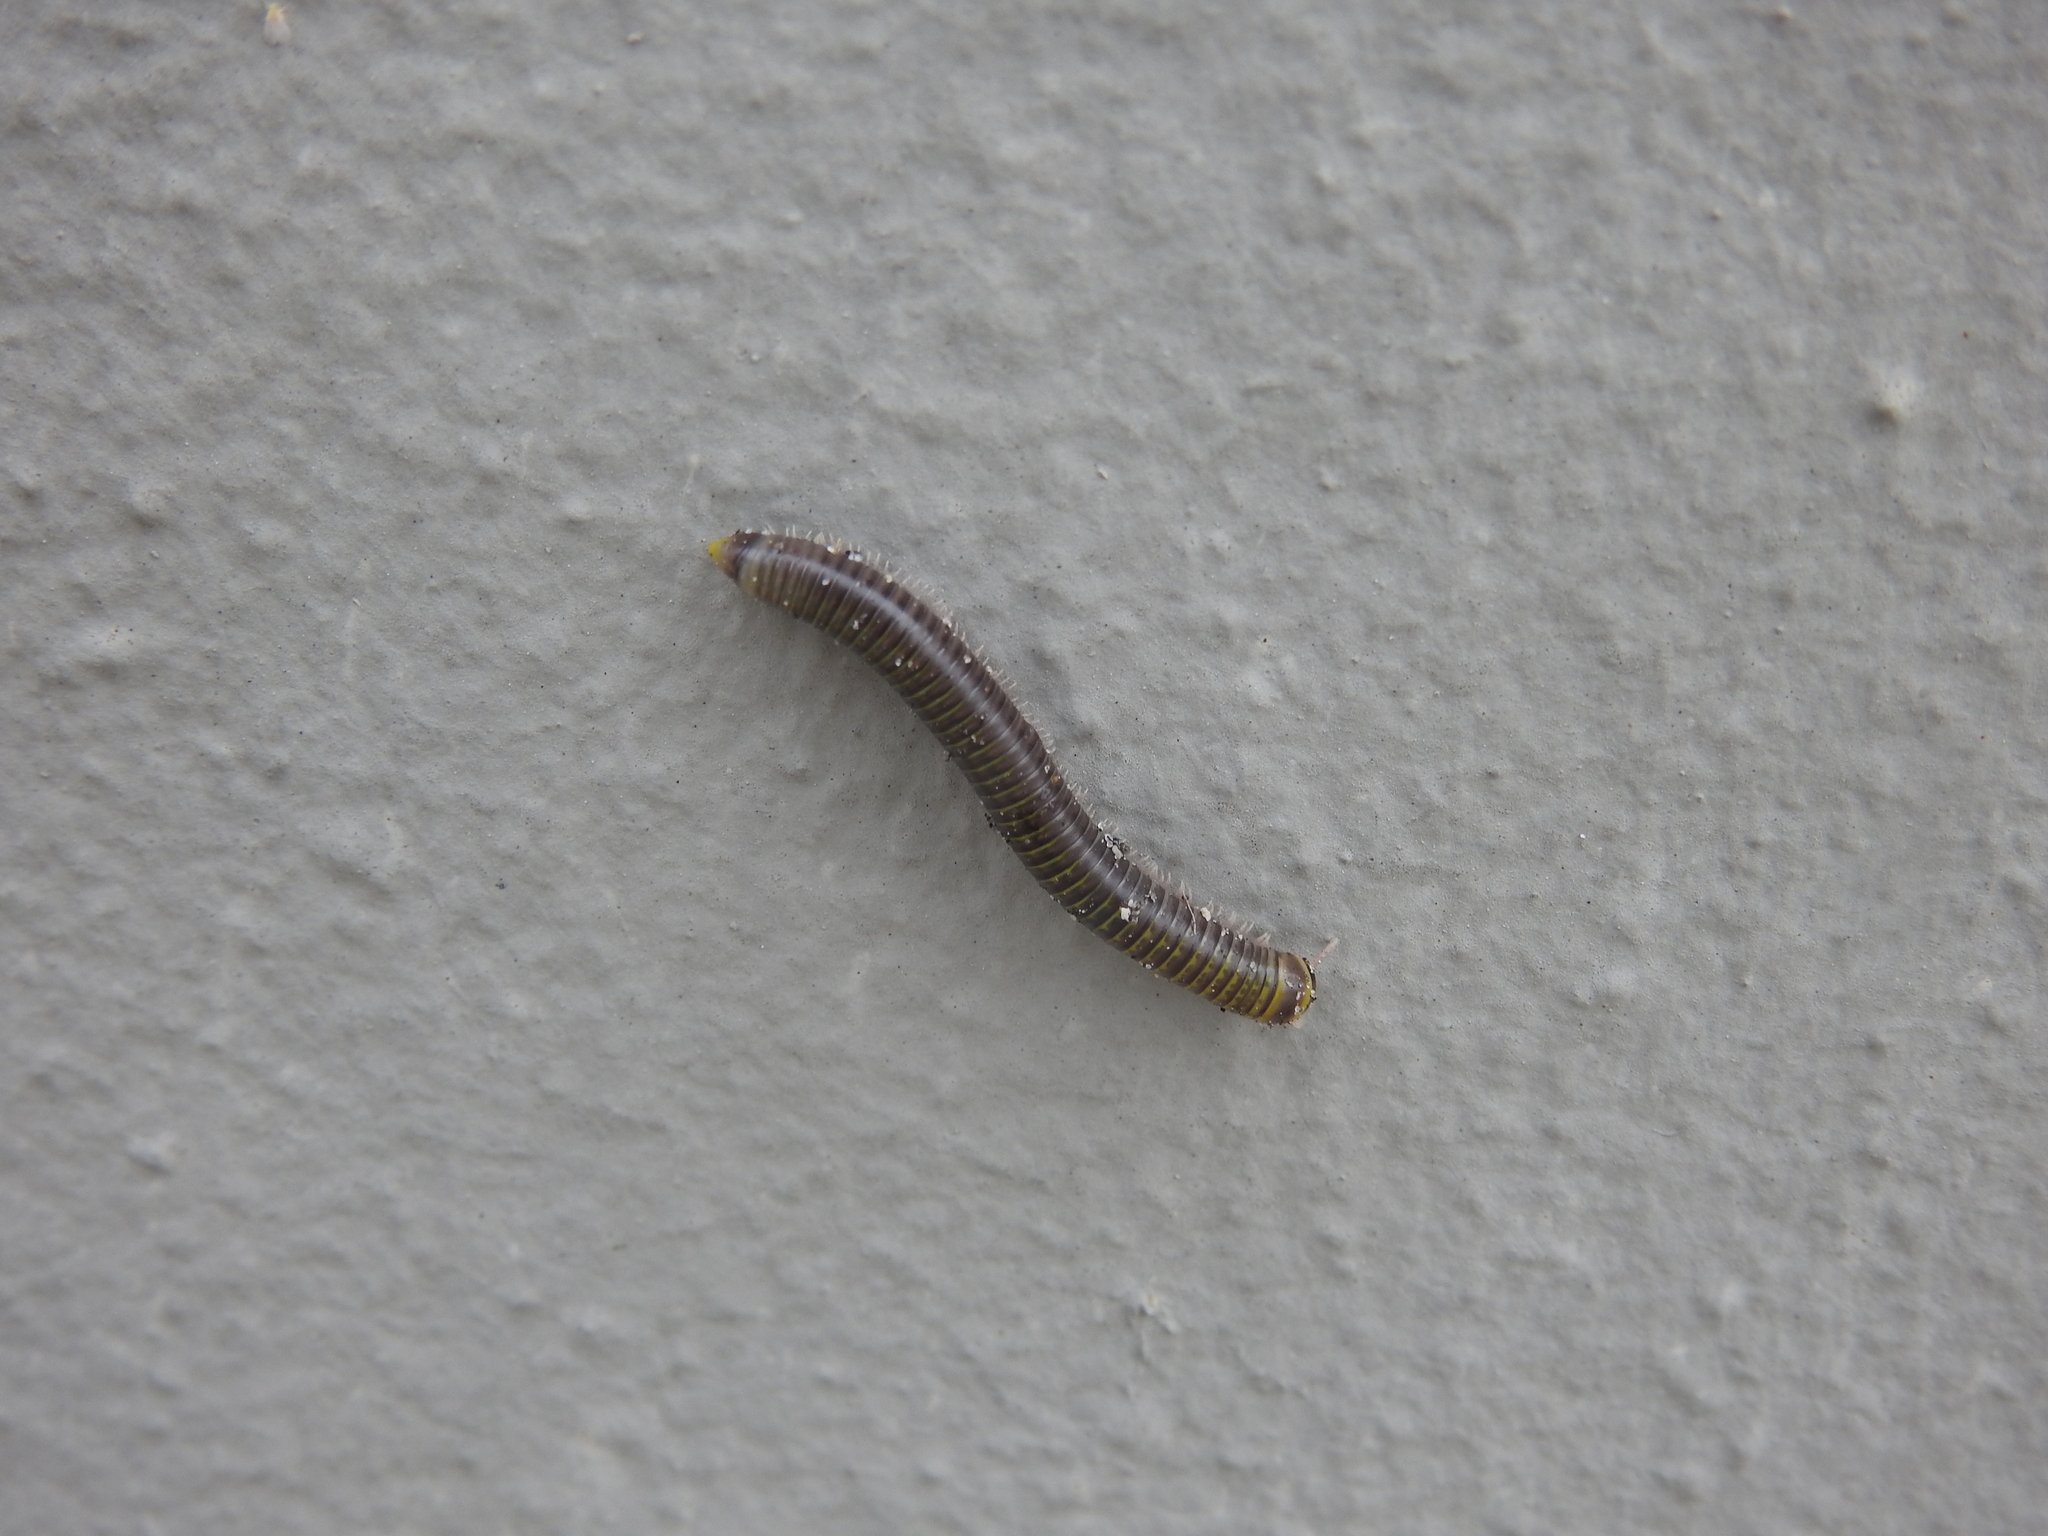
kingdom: Animalia
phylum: Arthropoda
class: Diplopoda
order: Spirobolida
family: Rhinocricidae
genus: Anadenobolus
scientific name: Anadenobolus monilicornis
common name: Caribbean millipede
